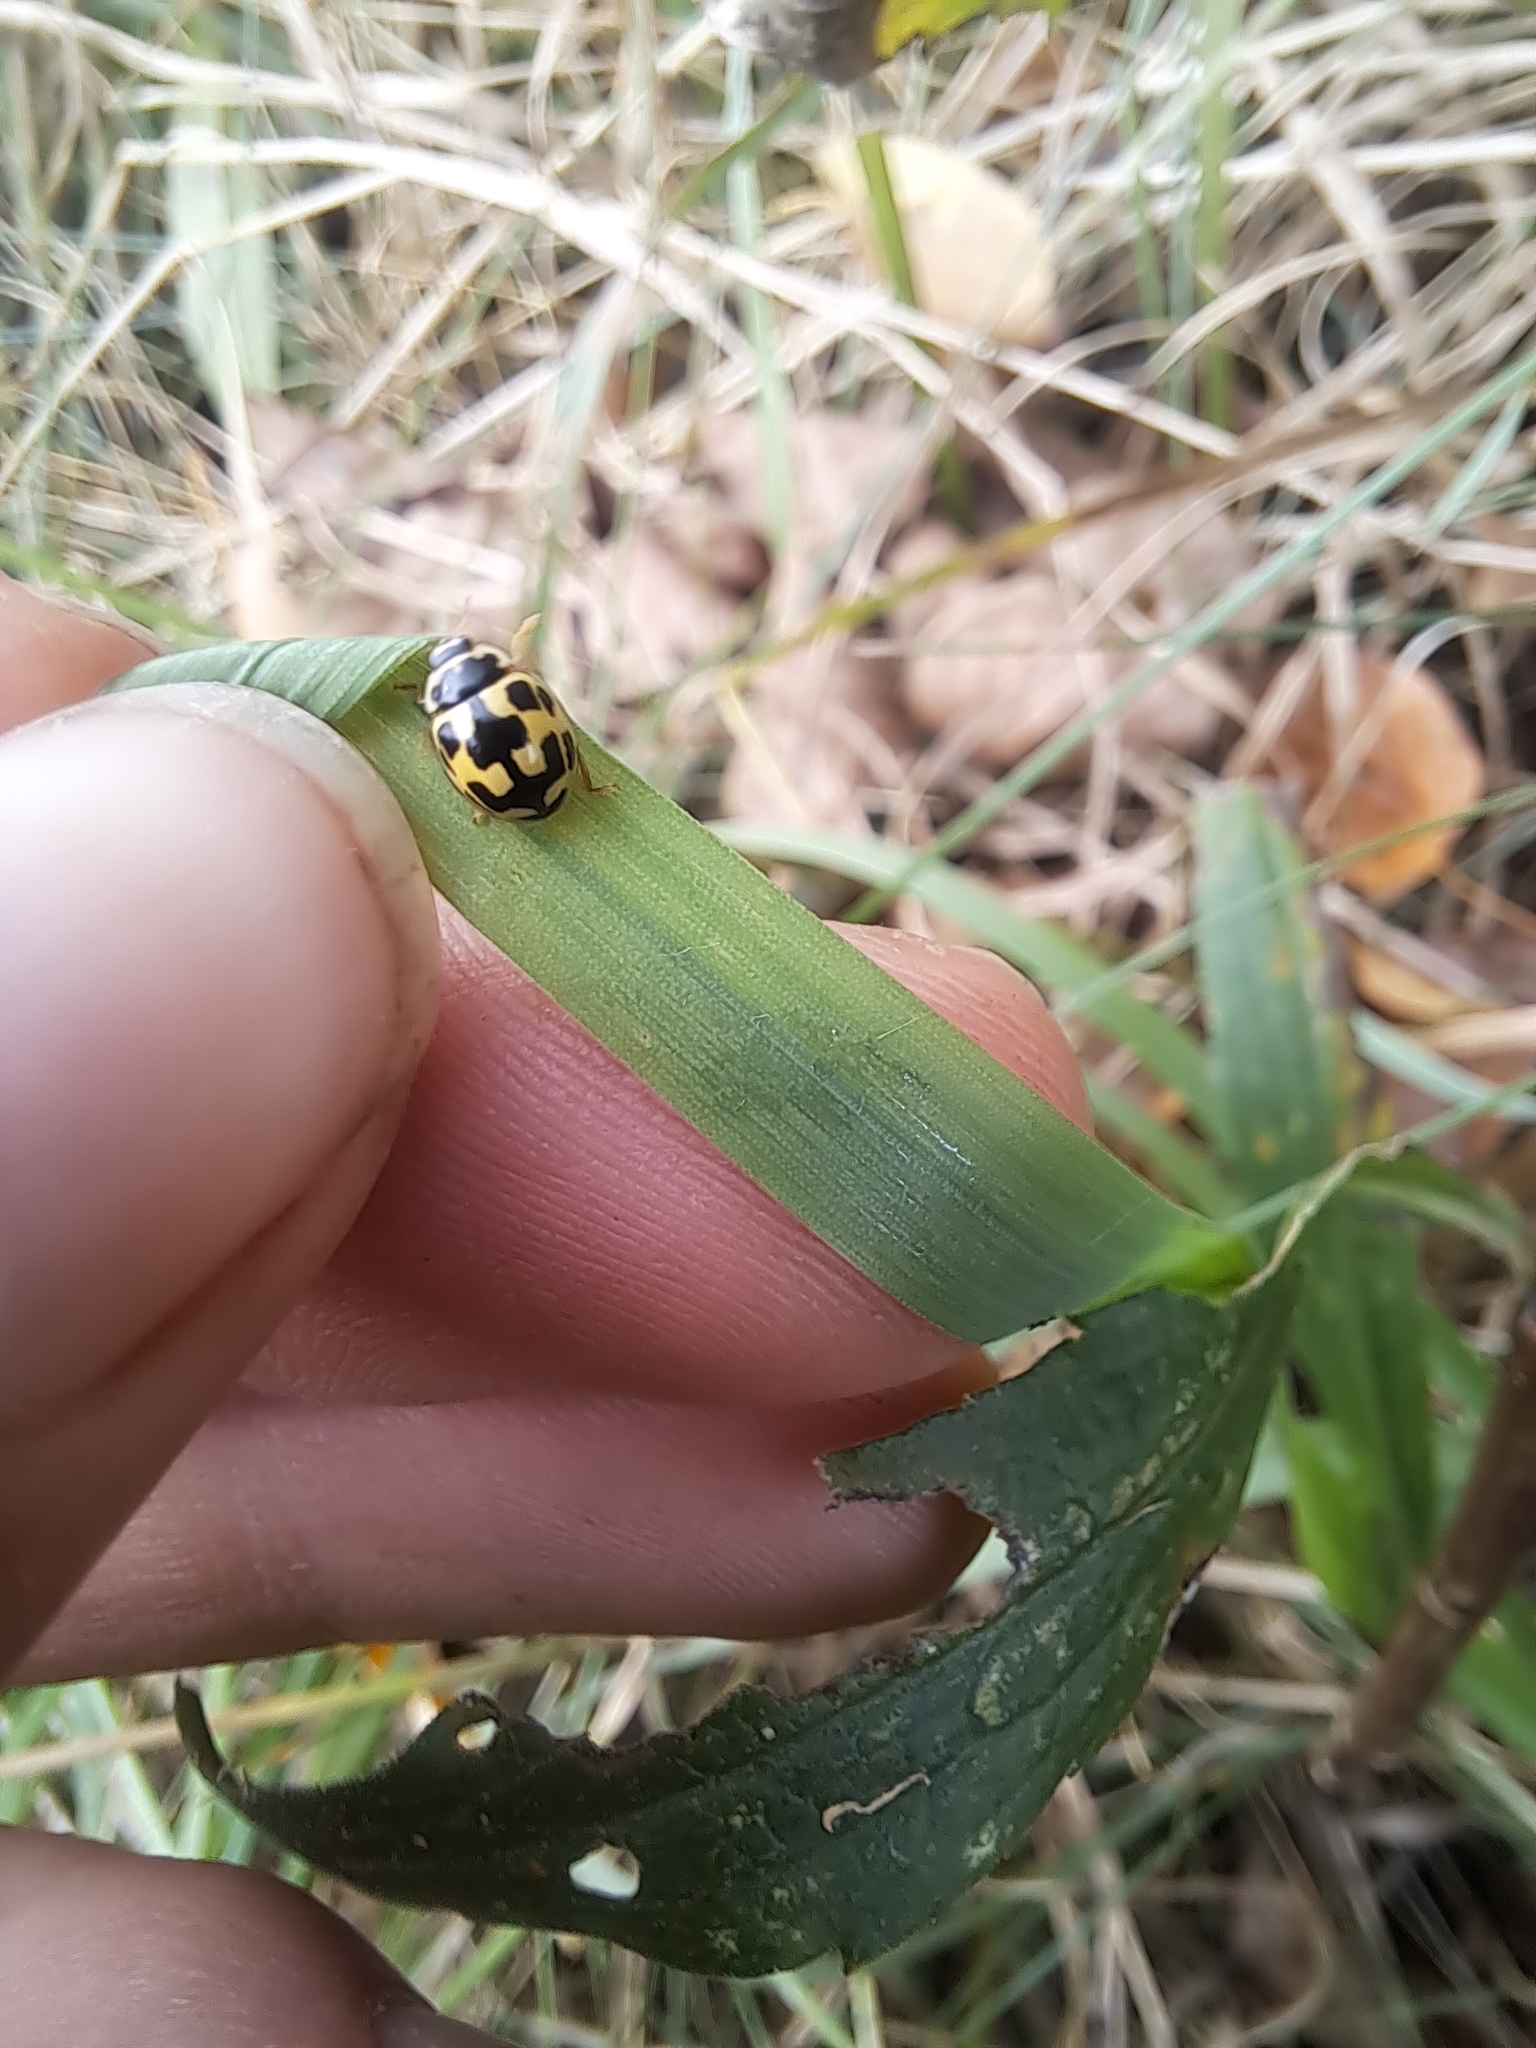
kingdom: Animalia
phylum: Arthropoda
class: Insecta
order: Coleoptera
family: Coccinellidae
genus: Propylaea
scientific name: Propylaea quatuordecimpunctata
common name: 14-spotted ladybird beetle
